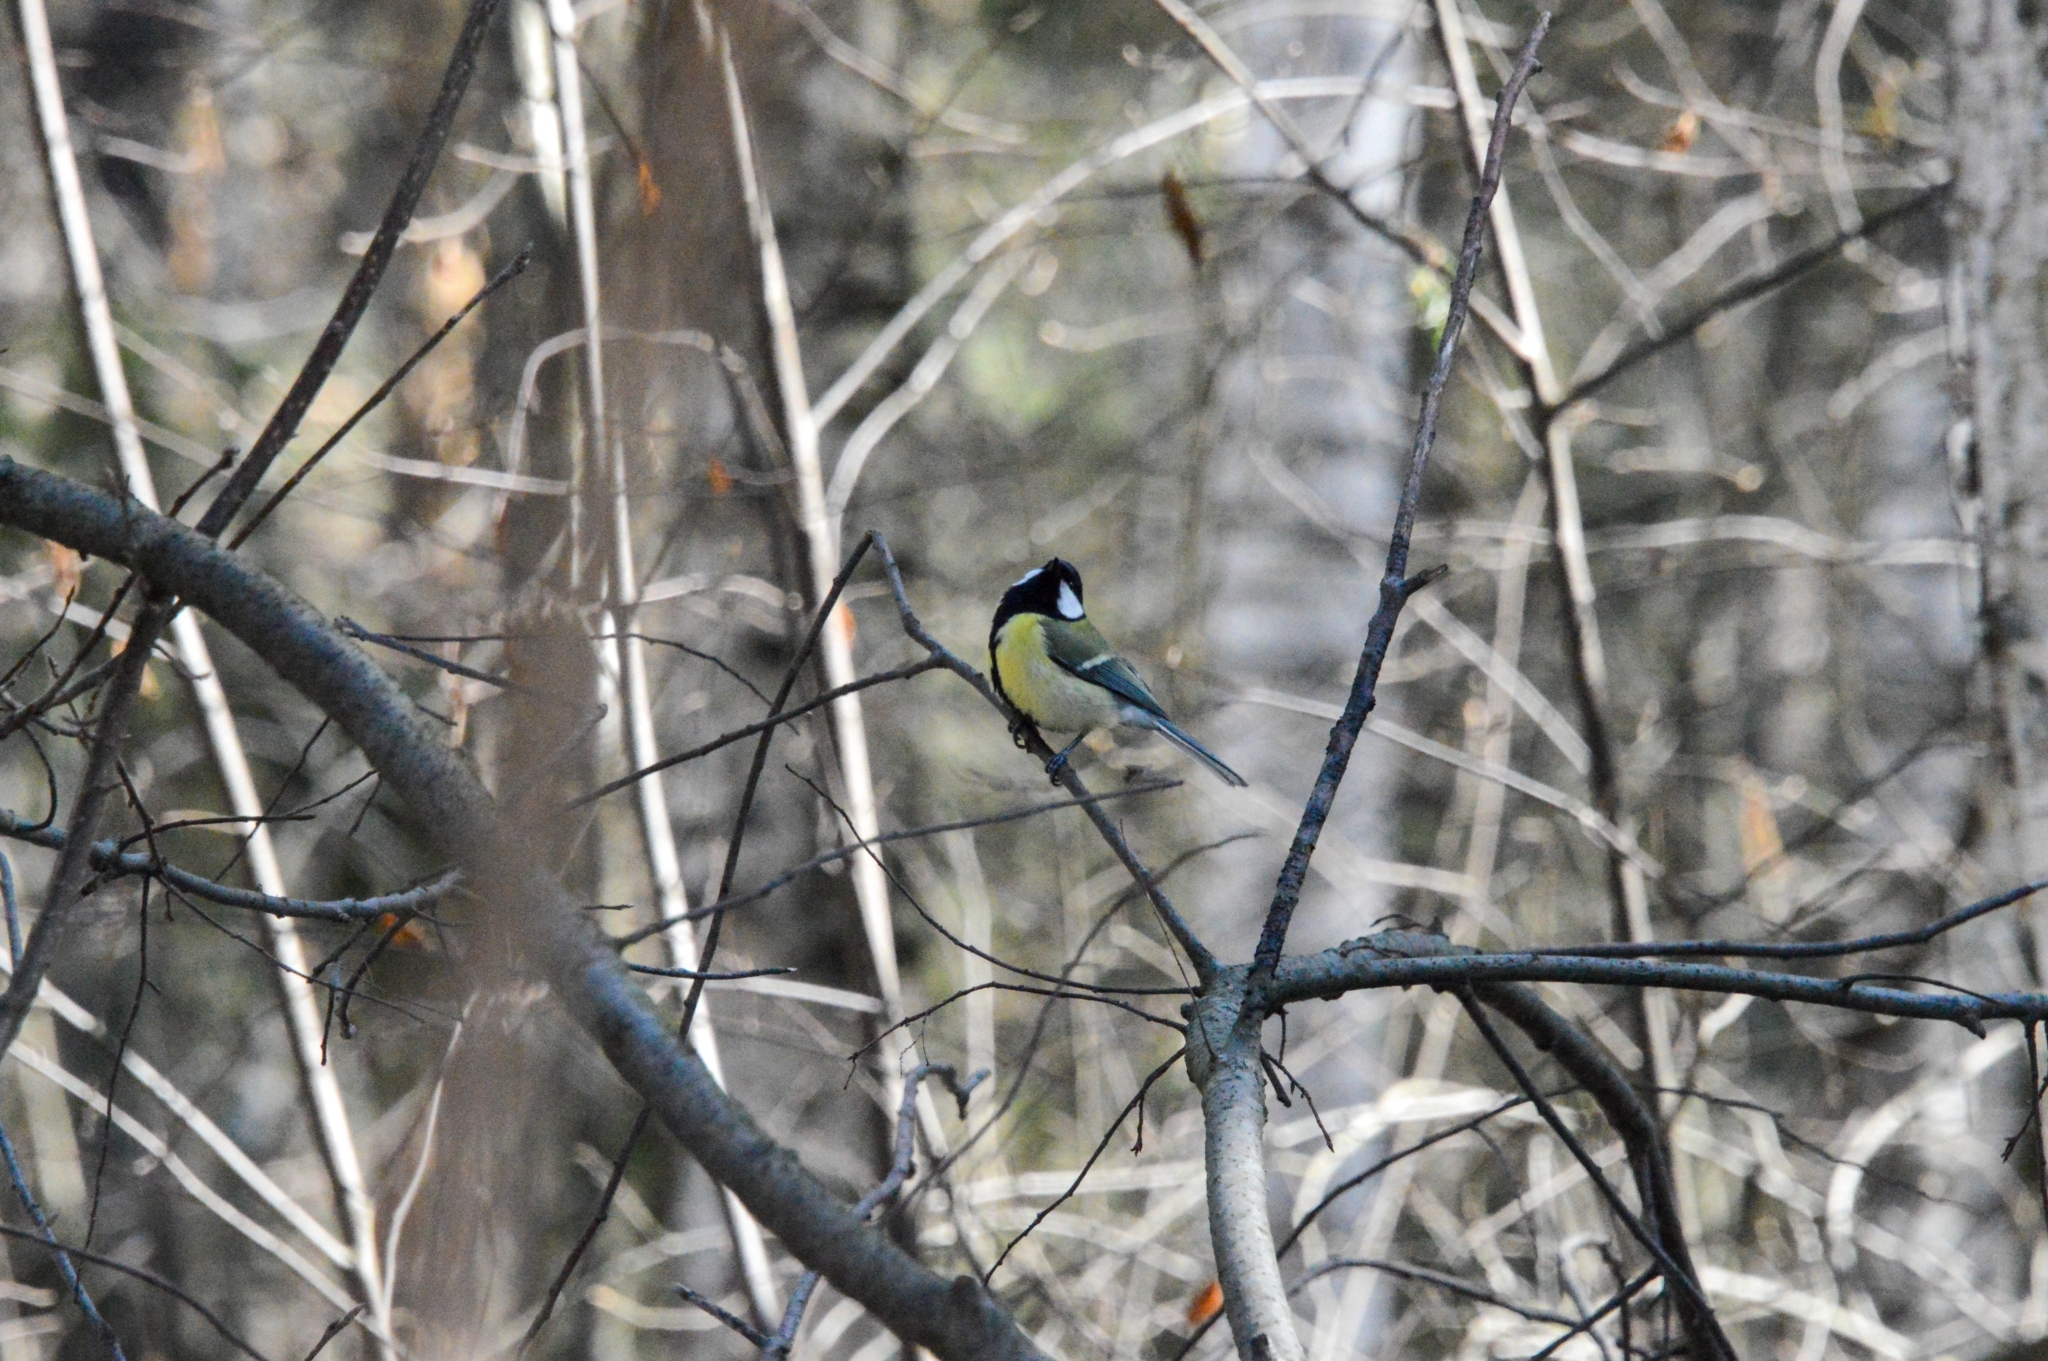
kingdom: Animalia
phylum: Chordata
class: Aves
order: Passeriformes
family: Paridae
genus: Parus
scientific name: Parus major
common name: Great tit
